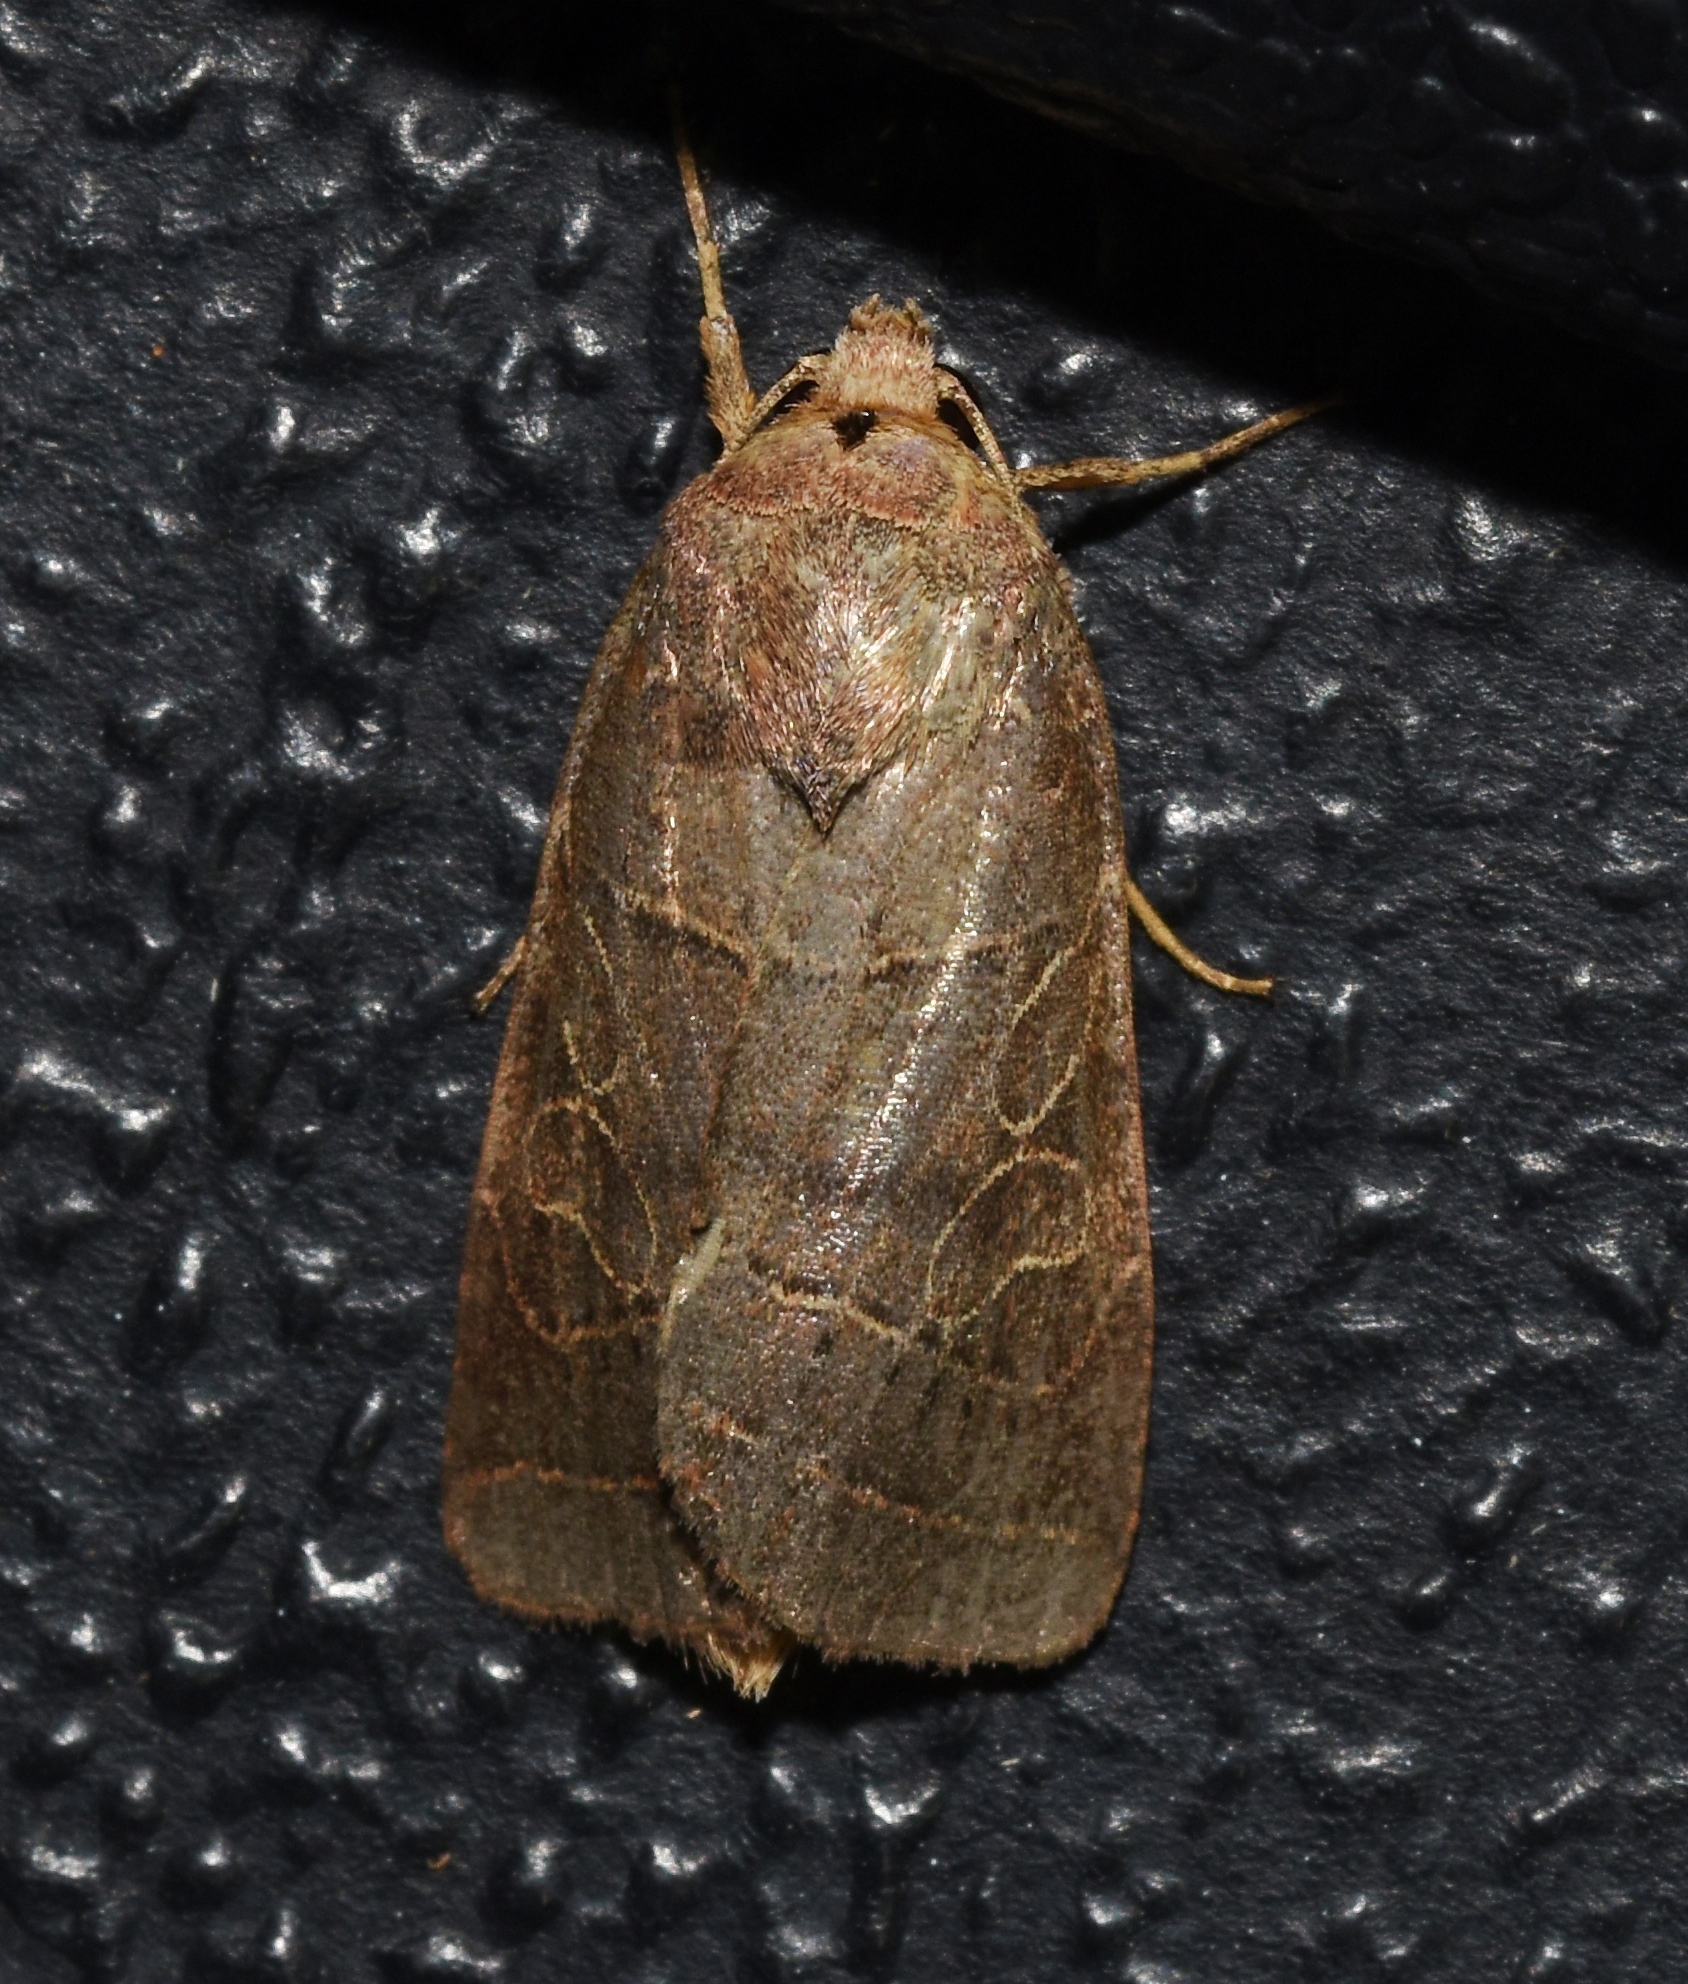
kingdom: Animalia
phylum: Arthropoda
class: Insecta
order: Lepidoptera
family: Noctuidae
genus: Orthodes
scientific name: Orthodes majuscula
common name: Rustic quaker
